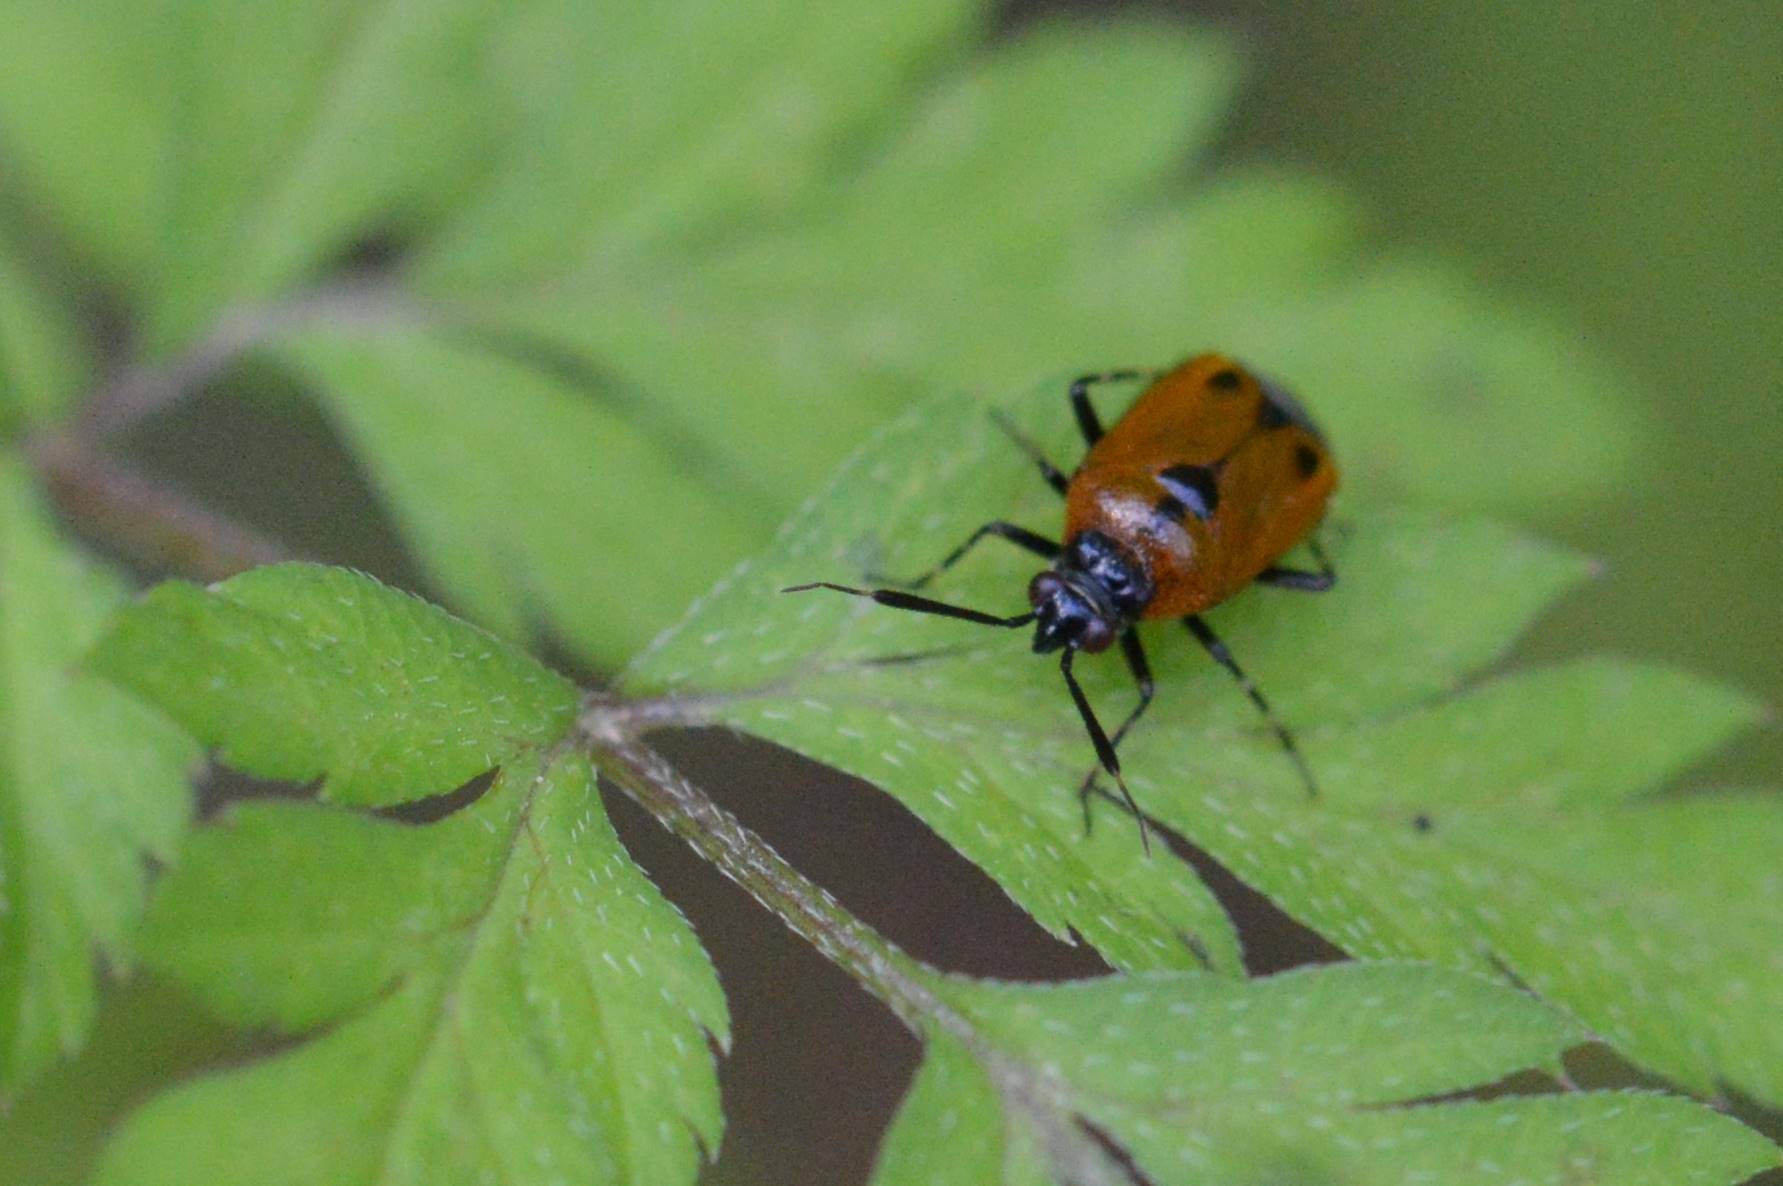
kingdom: Animalia
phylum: Arthropoda
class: Insecta
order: Hemiptera
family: Miridae
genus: Deraeocoris
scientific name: Deraeocoris punctum
